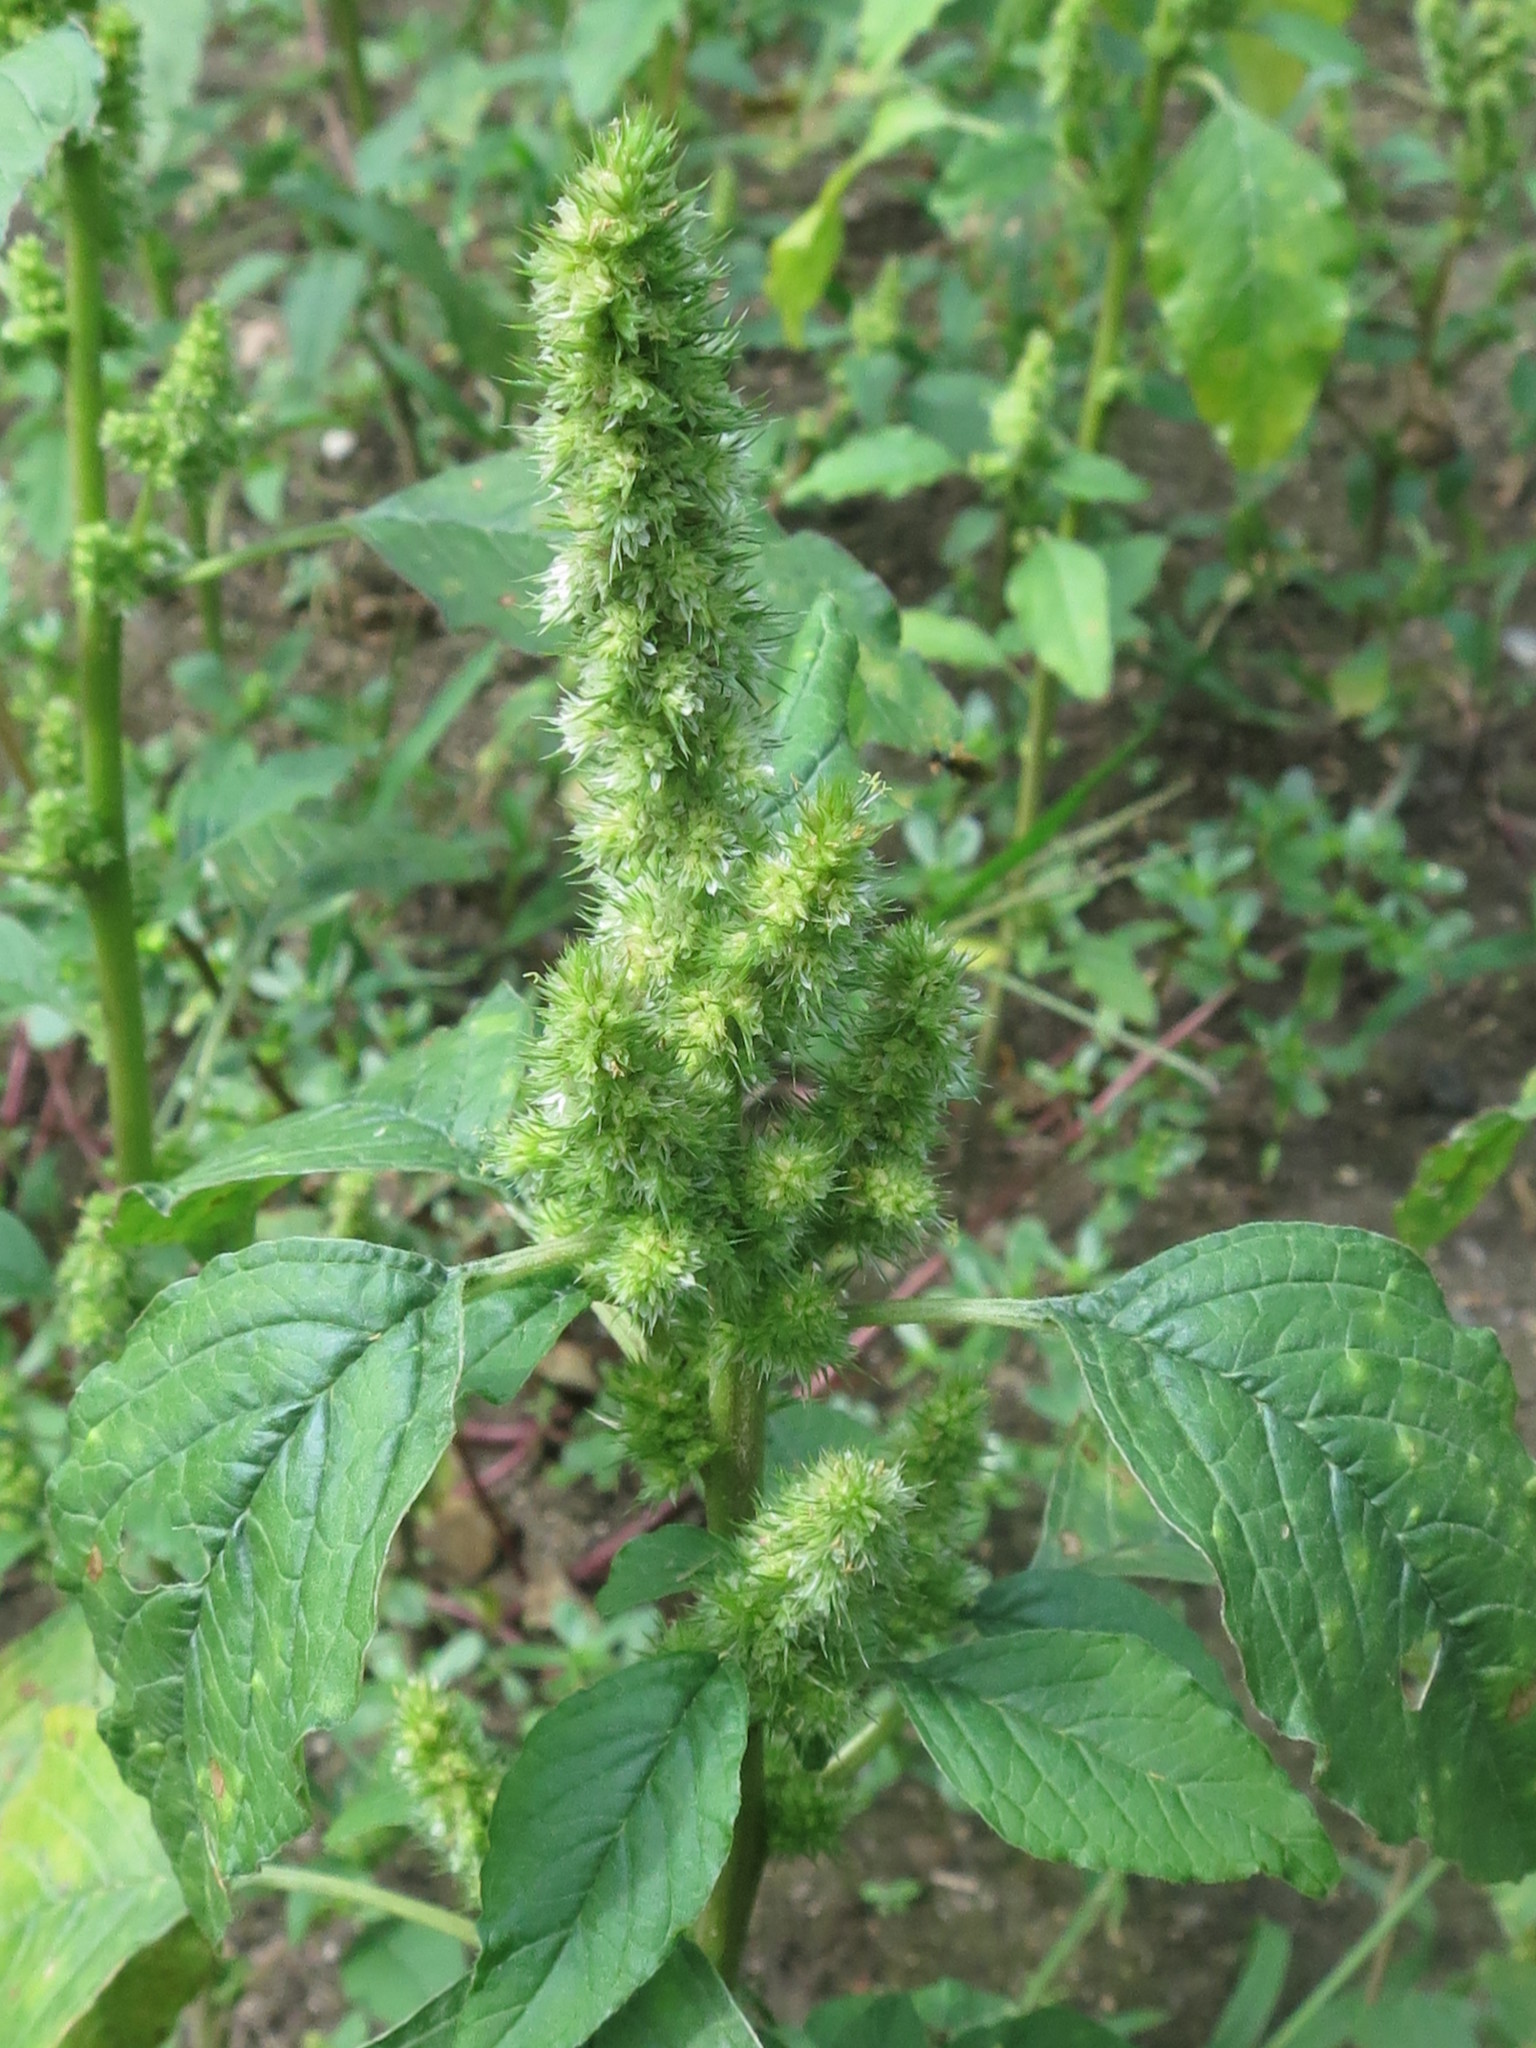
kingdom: Plantae
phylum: Tracheophyta
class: Magnoliopsida
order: Caryophyllales
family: Amaranthaceae
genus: Amaranthus
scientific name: Amaranthus retroflexus
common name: Redroot amaranth
